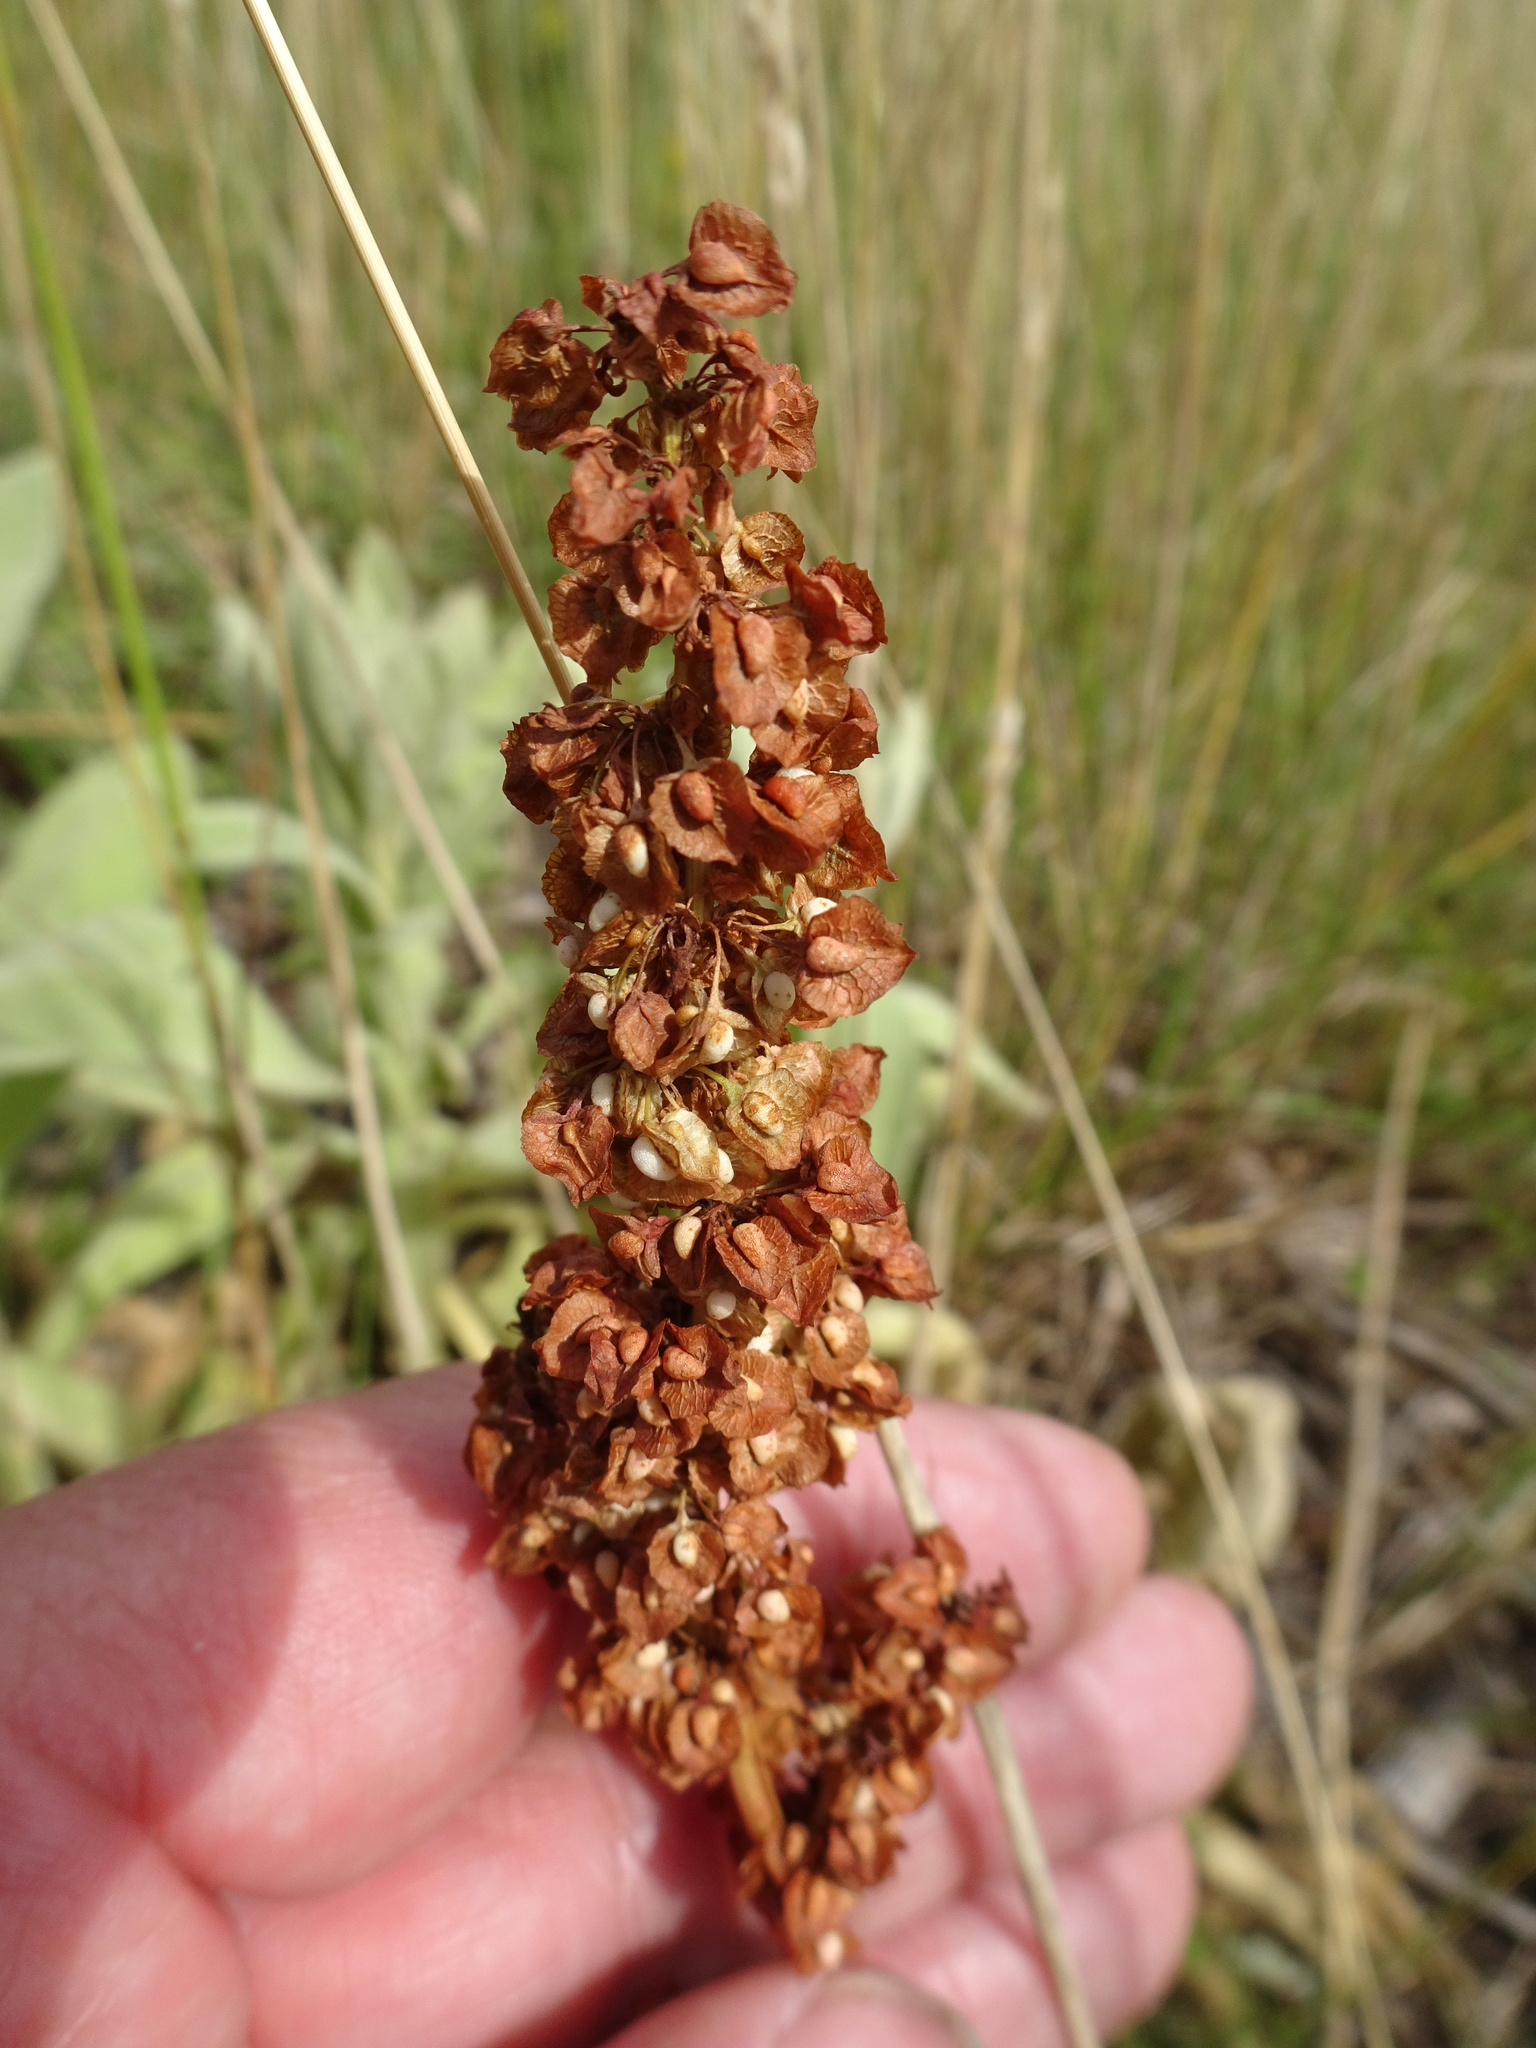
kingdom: Plantae
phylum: Tracheophyta
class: Magnoliopsida
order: Caryophyllales
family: Polygonaceae
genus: Rumex
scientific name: Rumex crispus
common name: Curled dock
